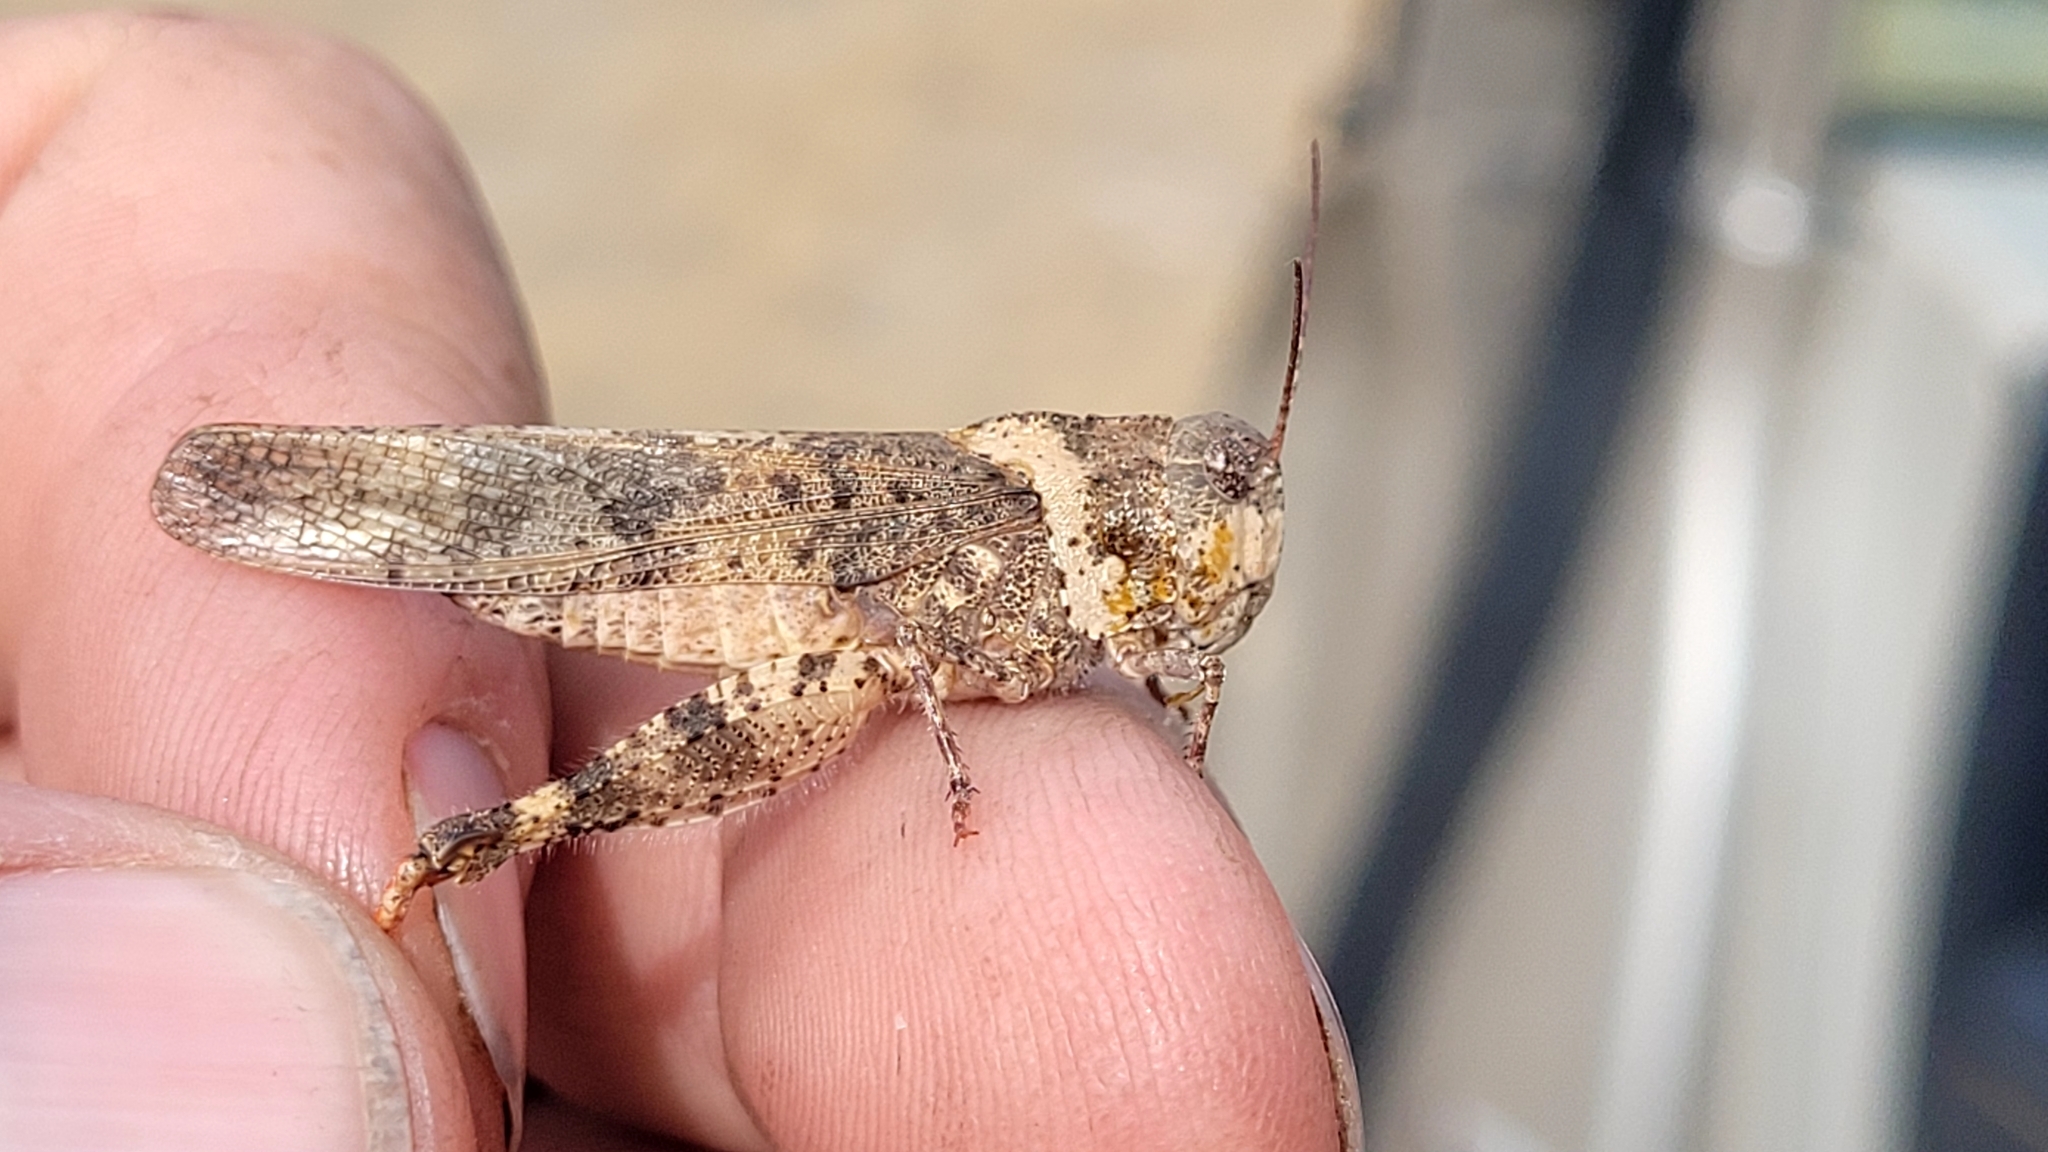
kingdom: Animalia
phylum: Arthropoda
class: Insecta
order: Orthoptera
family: Acrididae
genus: Spharagemon
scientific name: Spharagemon equale
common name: Orange-legged grasshopper
